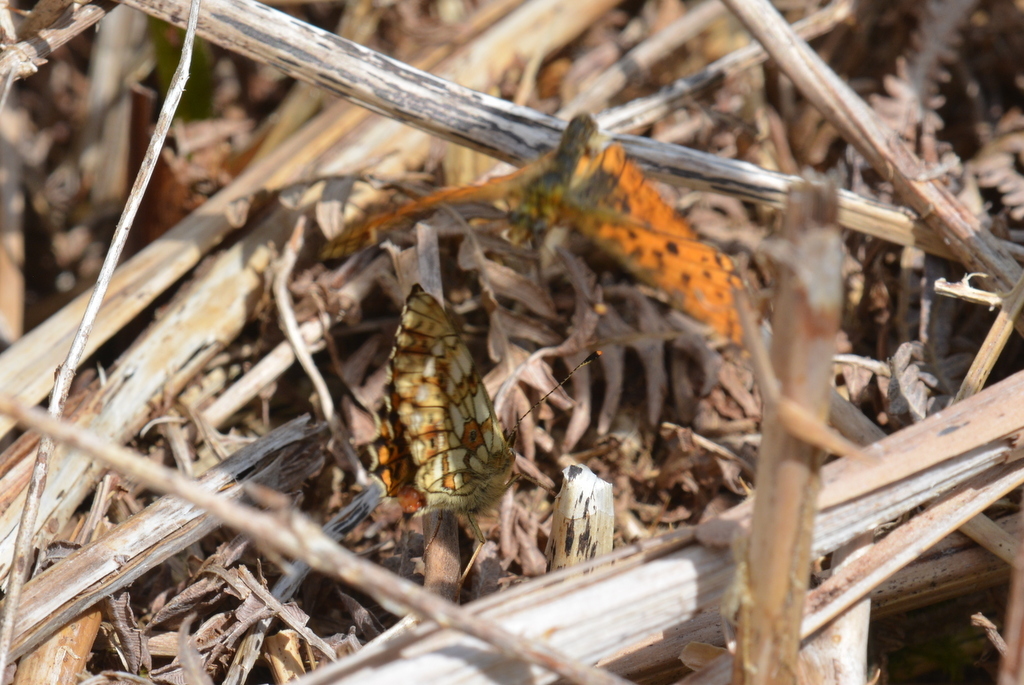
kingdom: Animalia
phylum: Arthropoda
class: Insecta
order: Lepidoptera
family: Nymphalidae
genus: Boloria
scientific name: Boloria selene
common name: Small pearl-bordered fritillary
